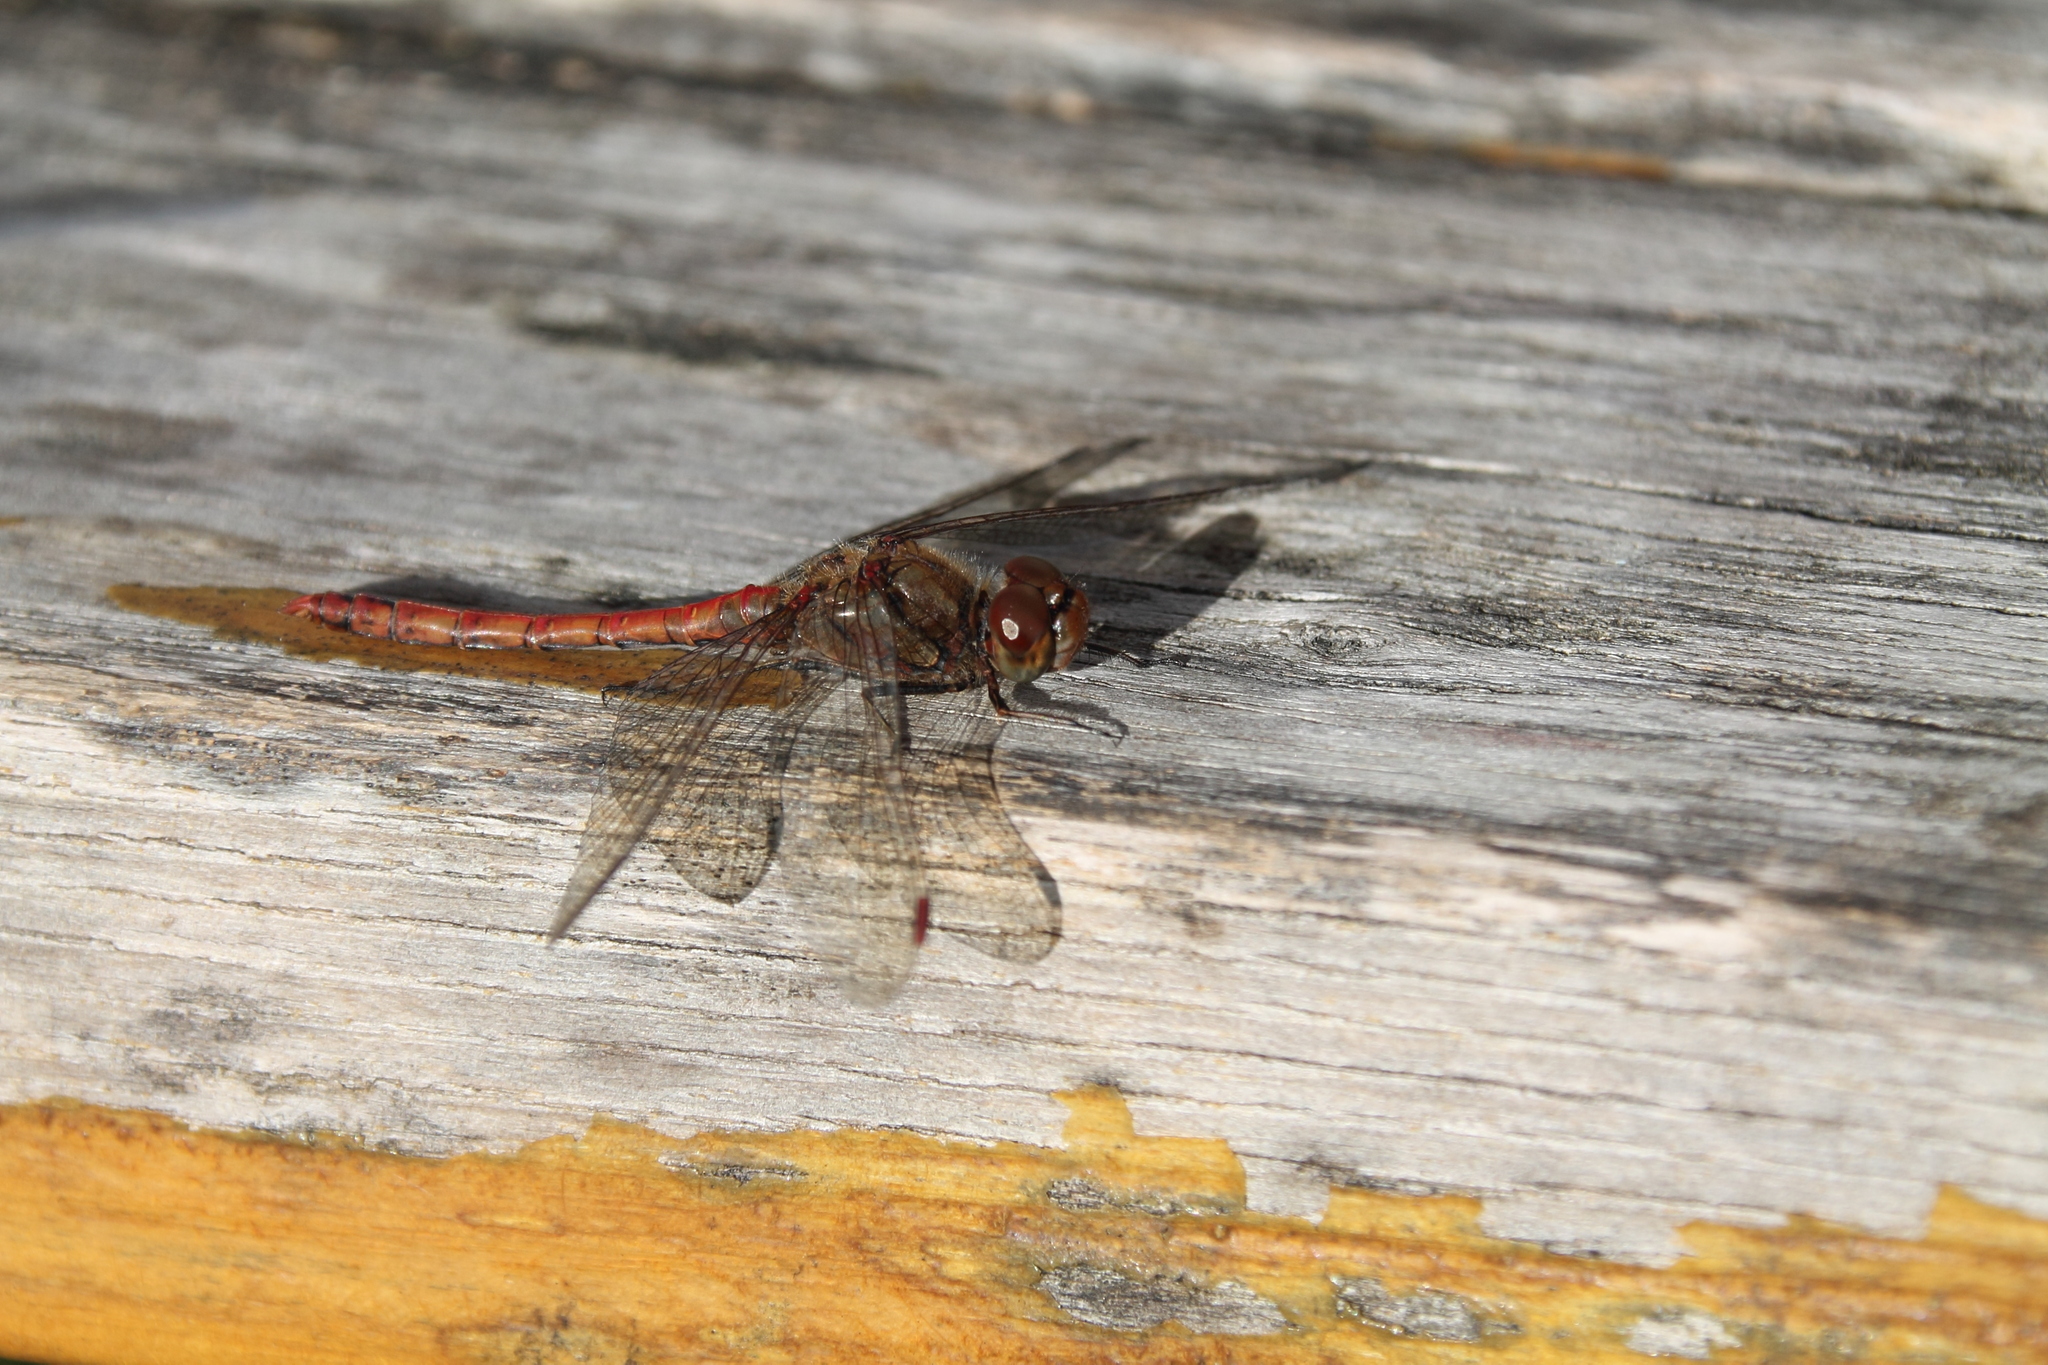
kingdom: Animalia
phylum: Arthropoda
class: Insecta
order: Odonata
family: Libellulidae
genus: Sympetrum
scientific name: Sympetrum vulgatum
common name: Vagrant darter
